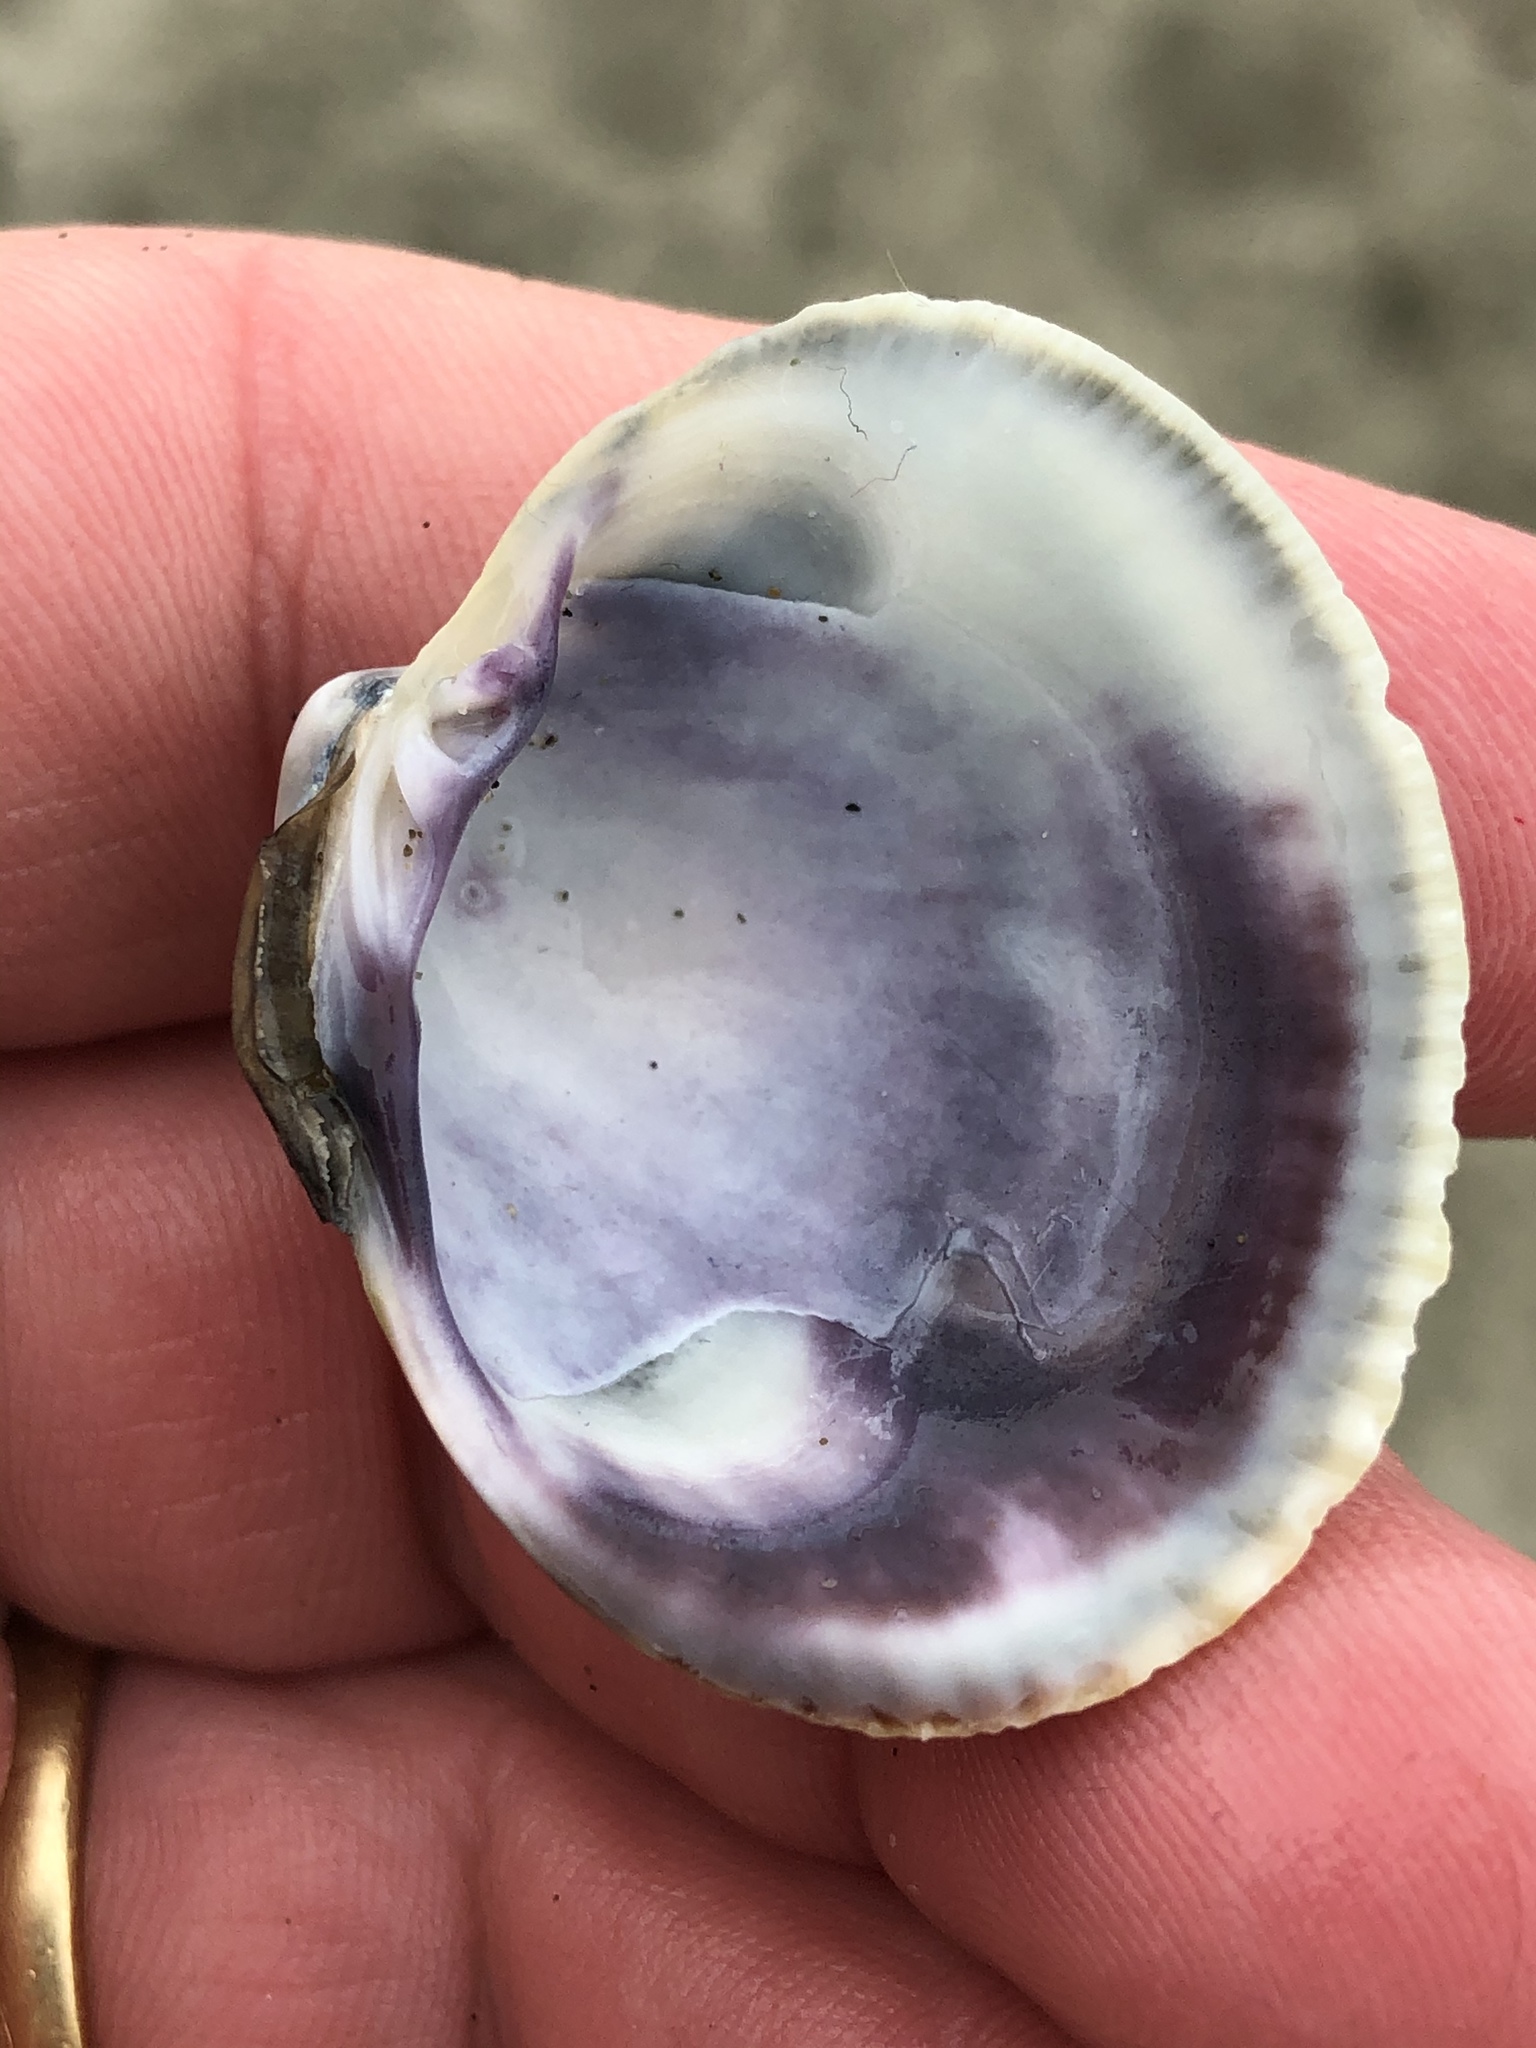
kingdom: Animalia
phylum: Mollusca
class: Bivalvia
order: Venerida
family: Veneridae
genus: Austrovenus
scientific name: Austrovenus stutchburyi
